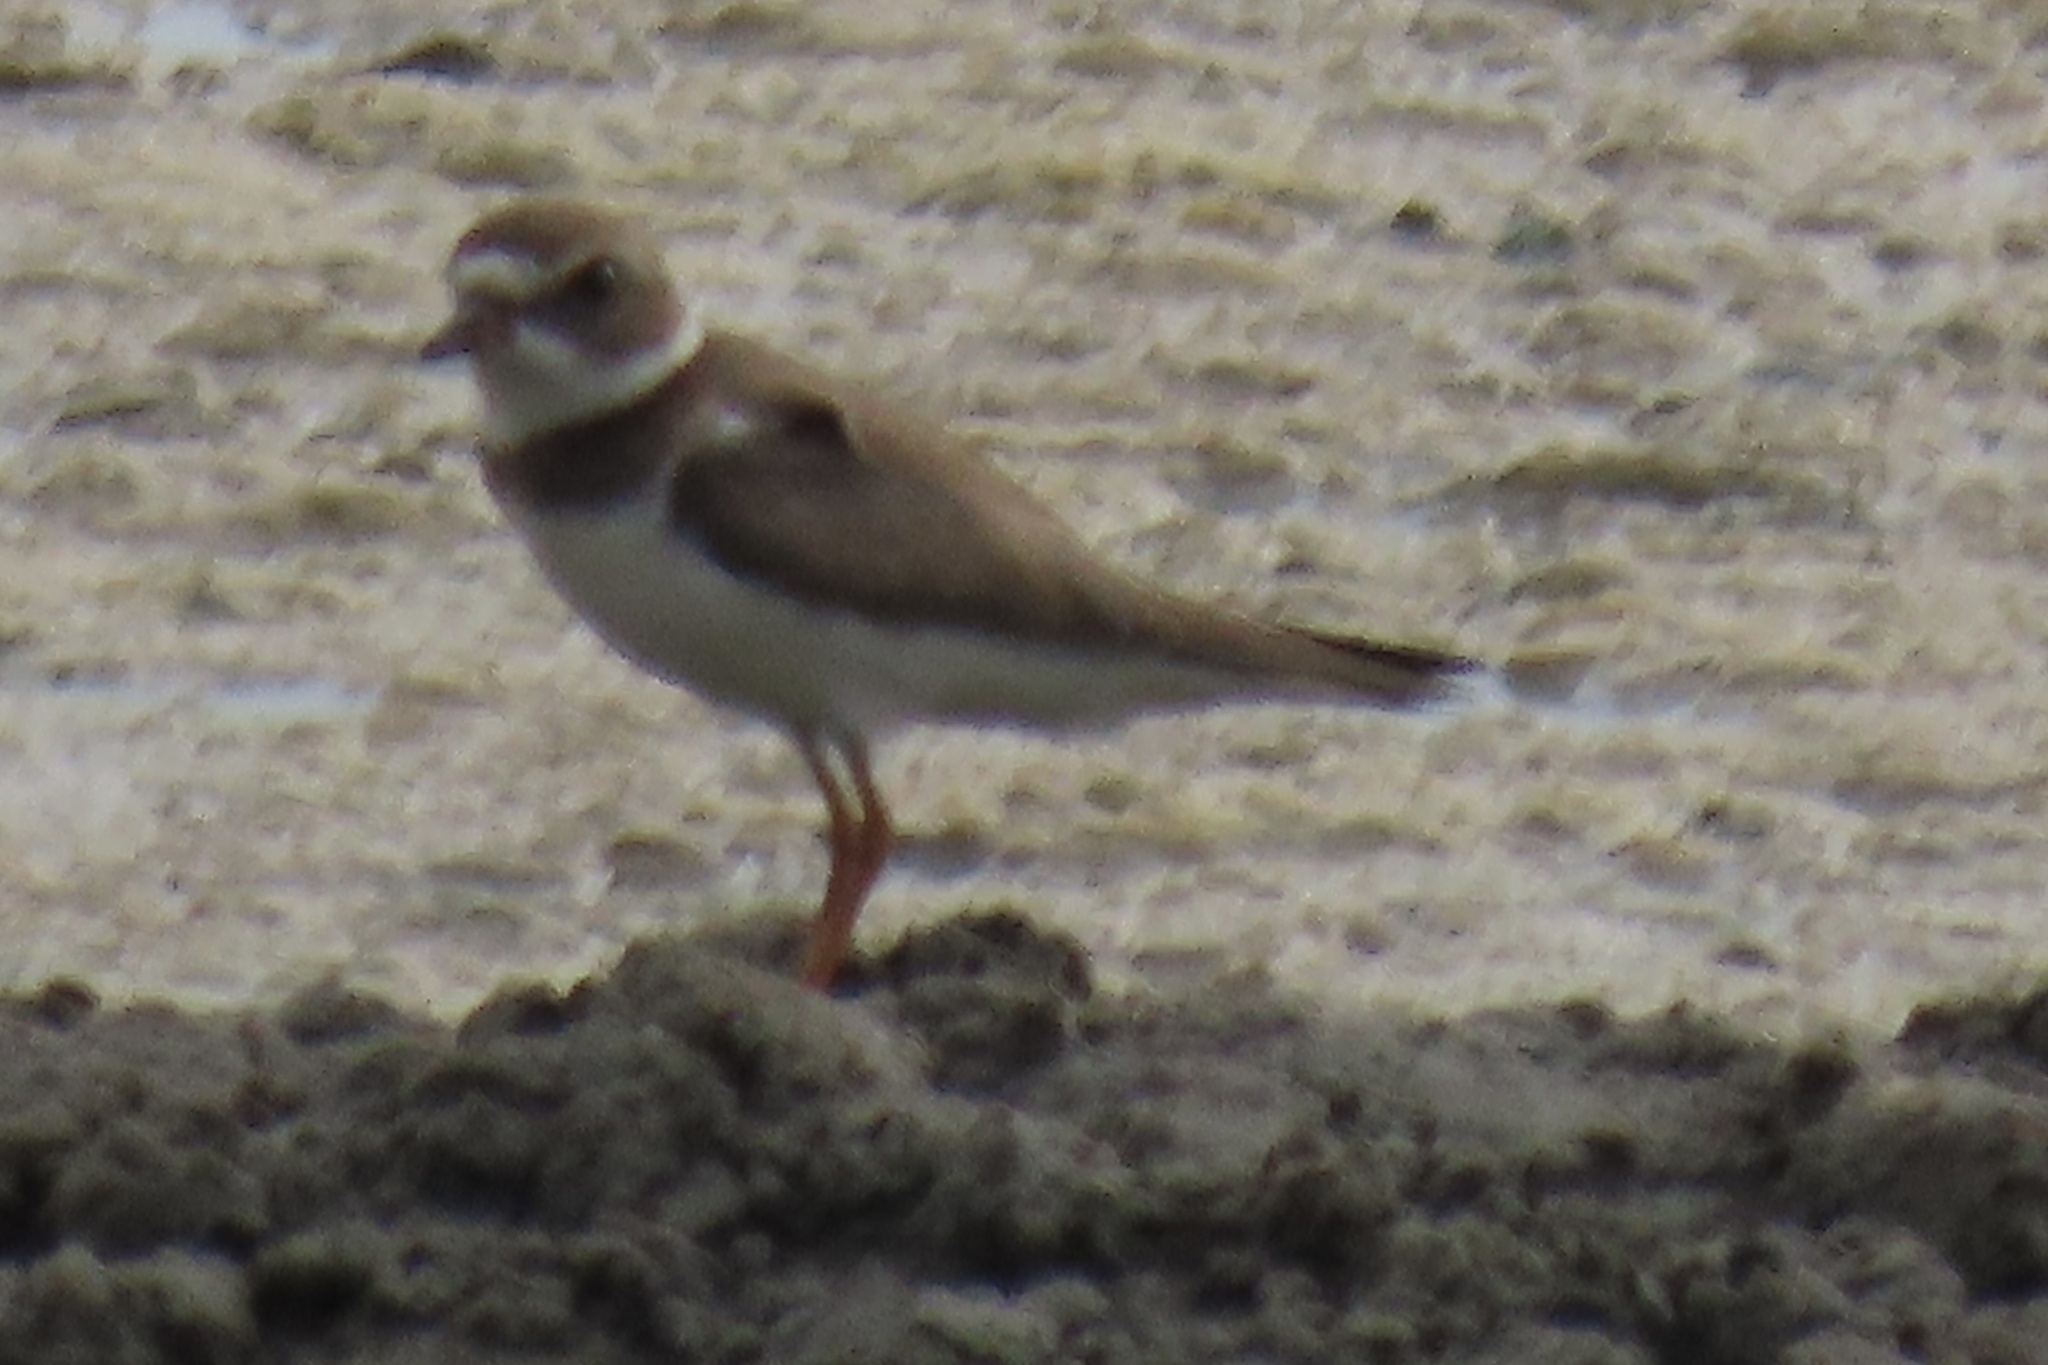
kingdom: Animalia
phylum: Chordata
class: Aves
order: Charadriiformes
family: Charadriidae
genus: Charadrius
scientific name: Charadrius semipalmatus
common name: Semipalmated plover
